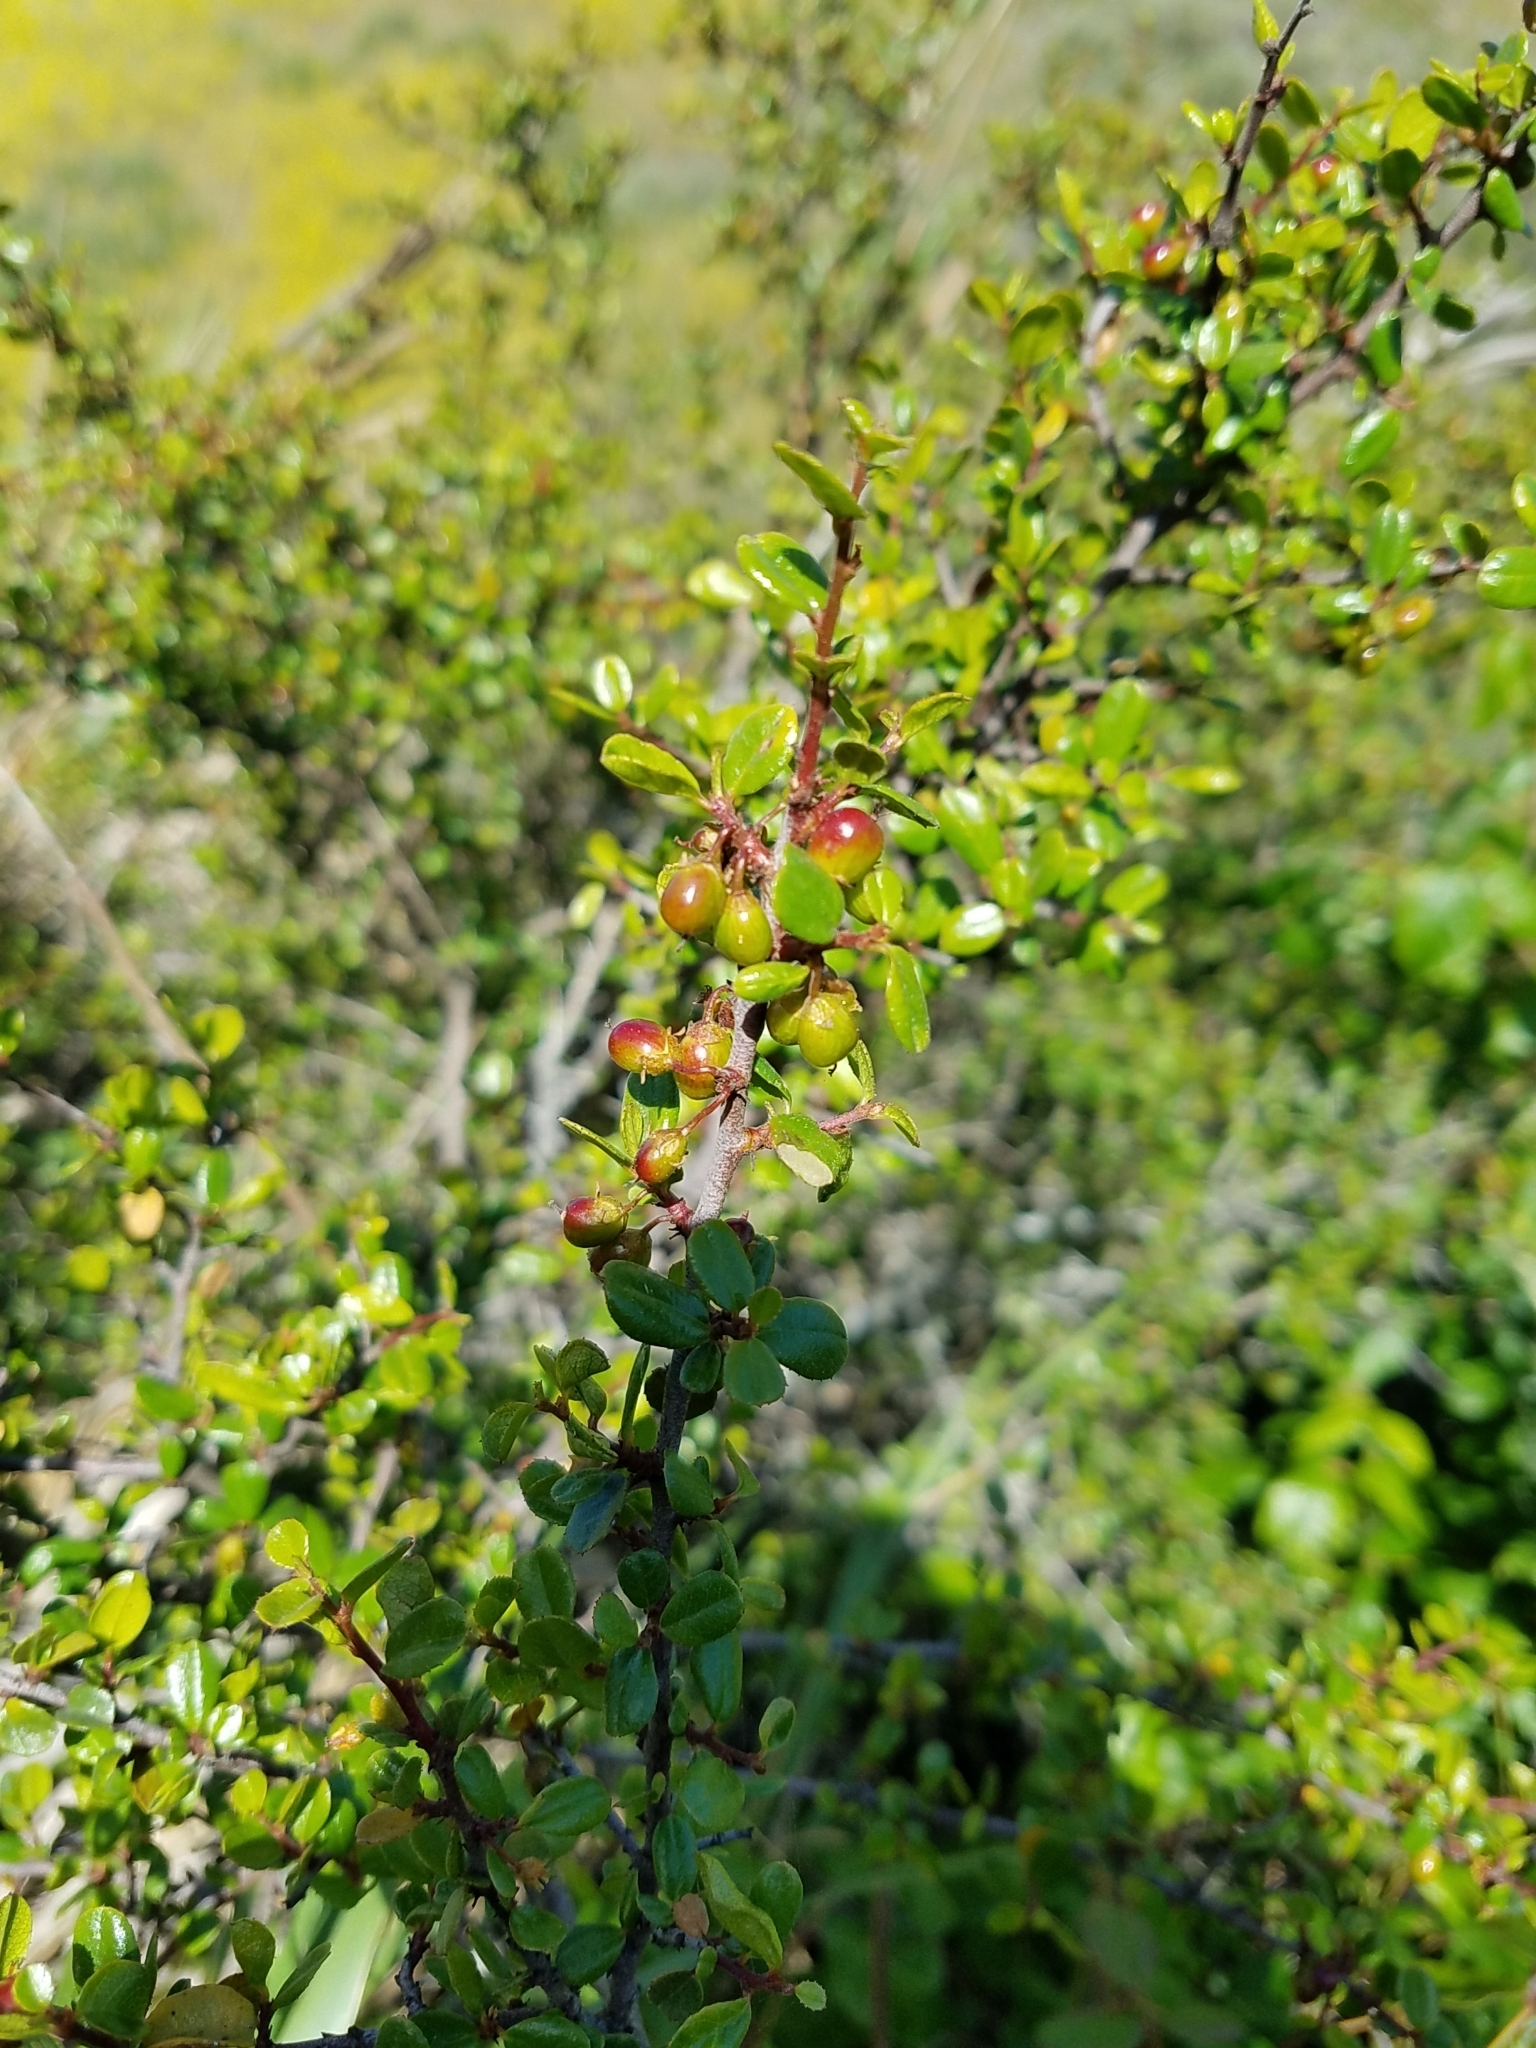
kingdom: Plantae
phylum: Tracheophyta
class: Magnoliopsida
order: Rosales
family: Rhamnaceae
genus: Endotropis
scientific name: Endotropis crocea
